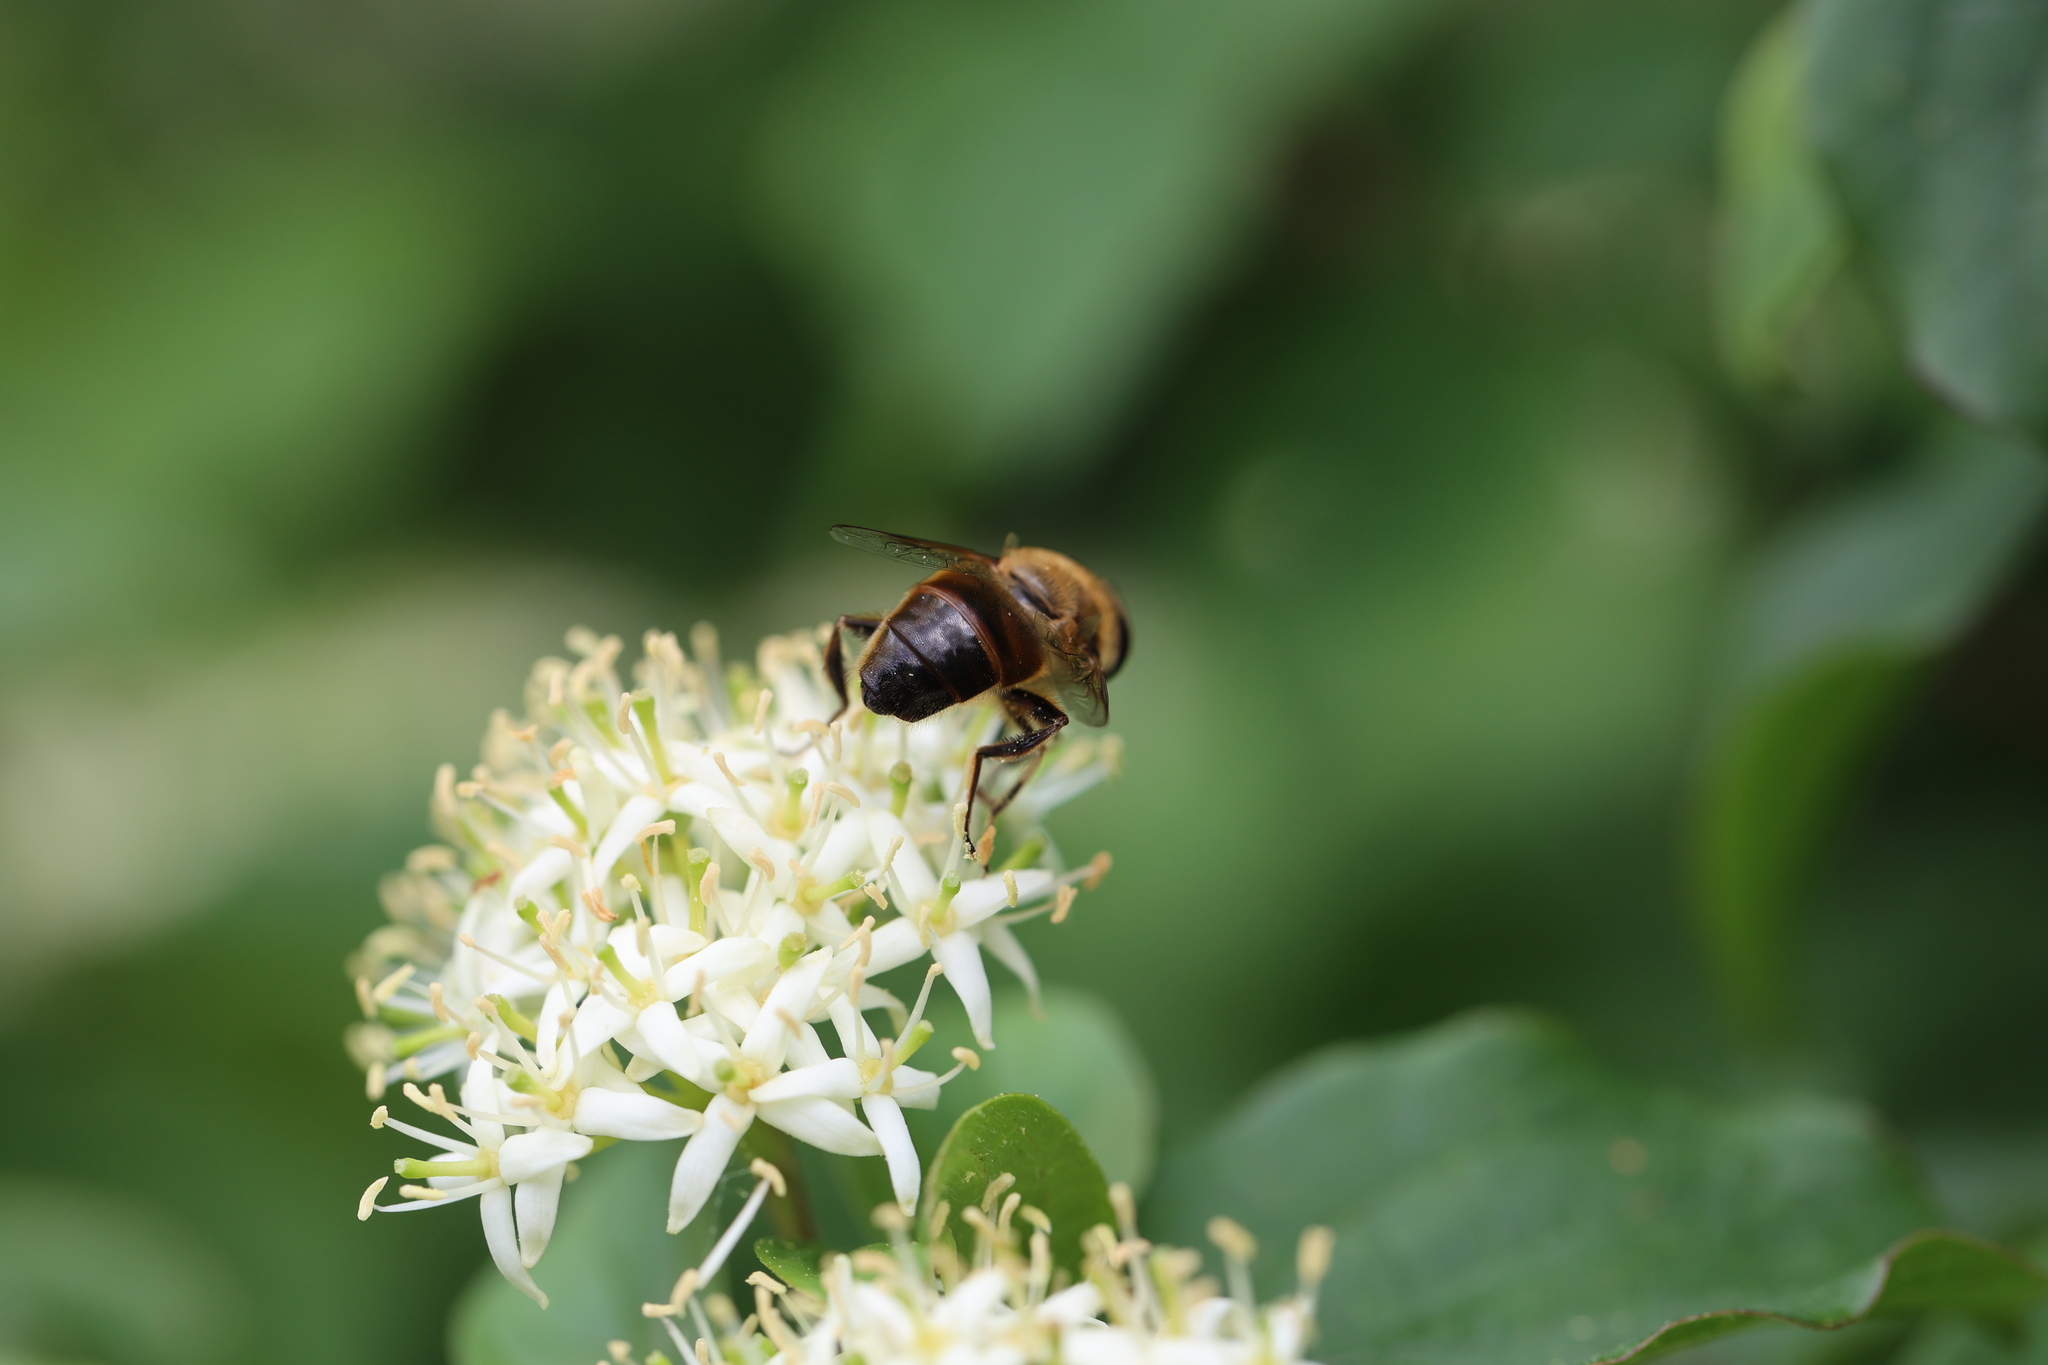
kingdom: Animalia
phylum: Arthropoda
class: Insecta
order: Diptera
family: Syrphidae
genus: Eristalis
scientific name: Eristalis tenax
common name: Drone fly
